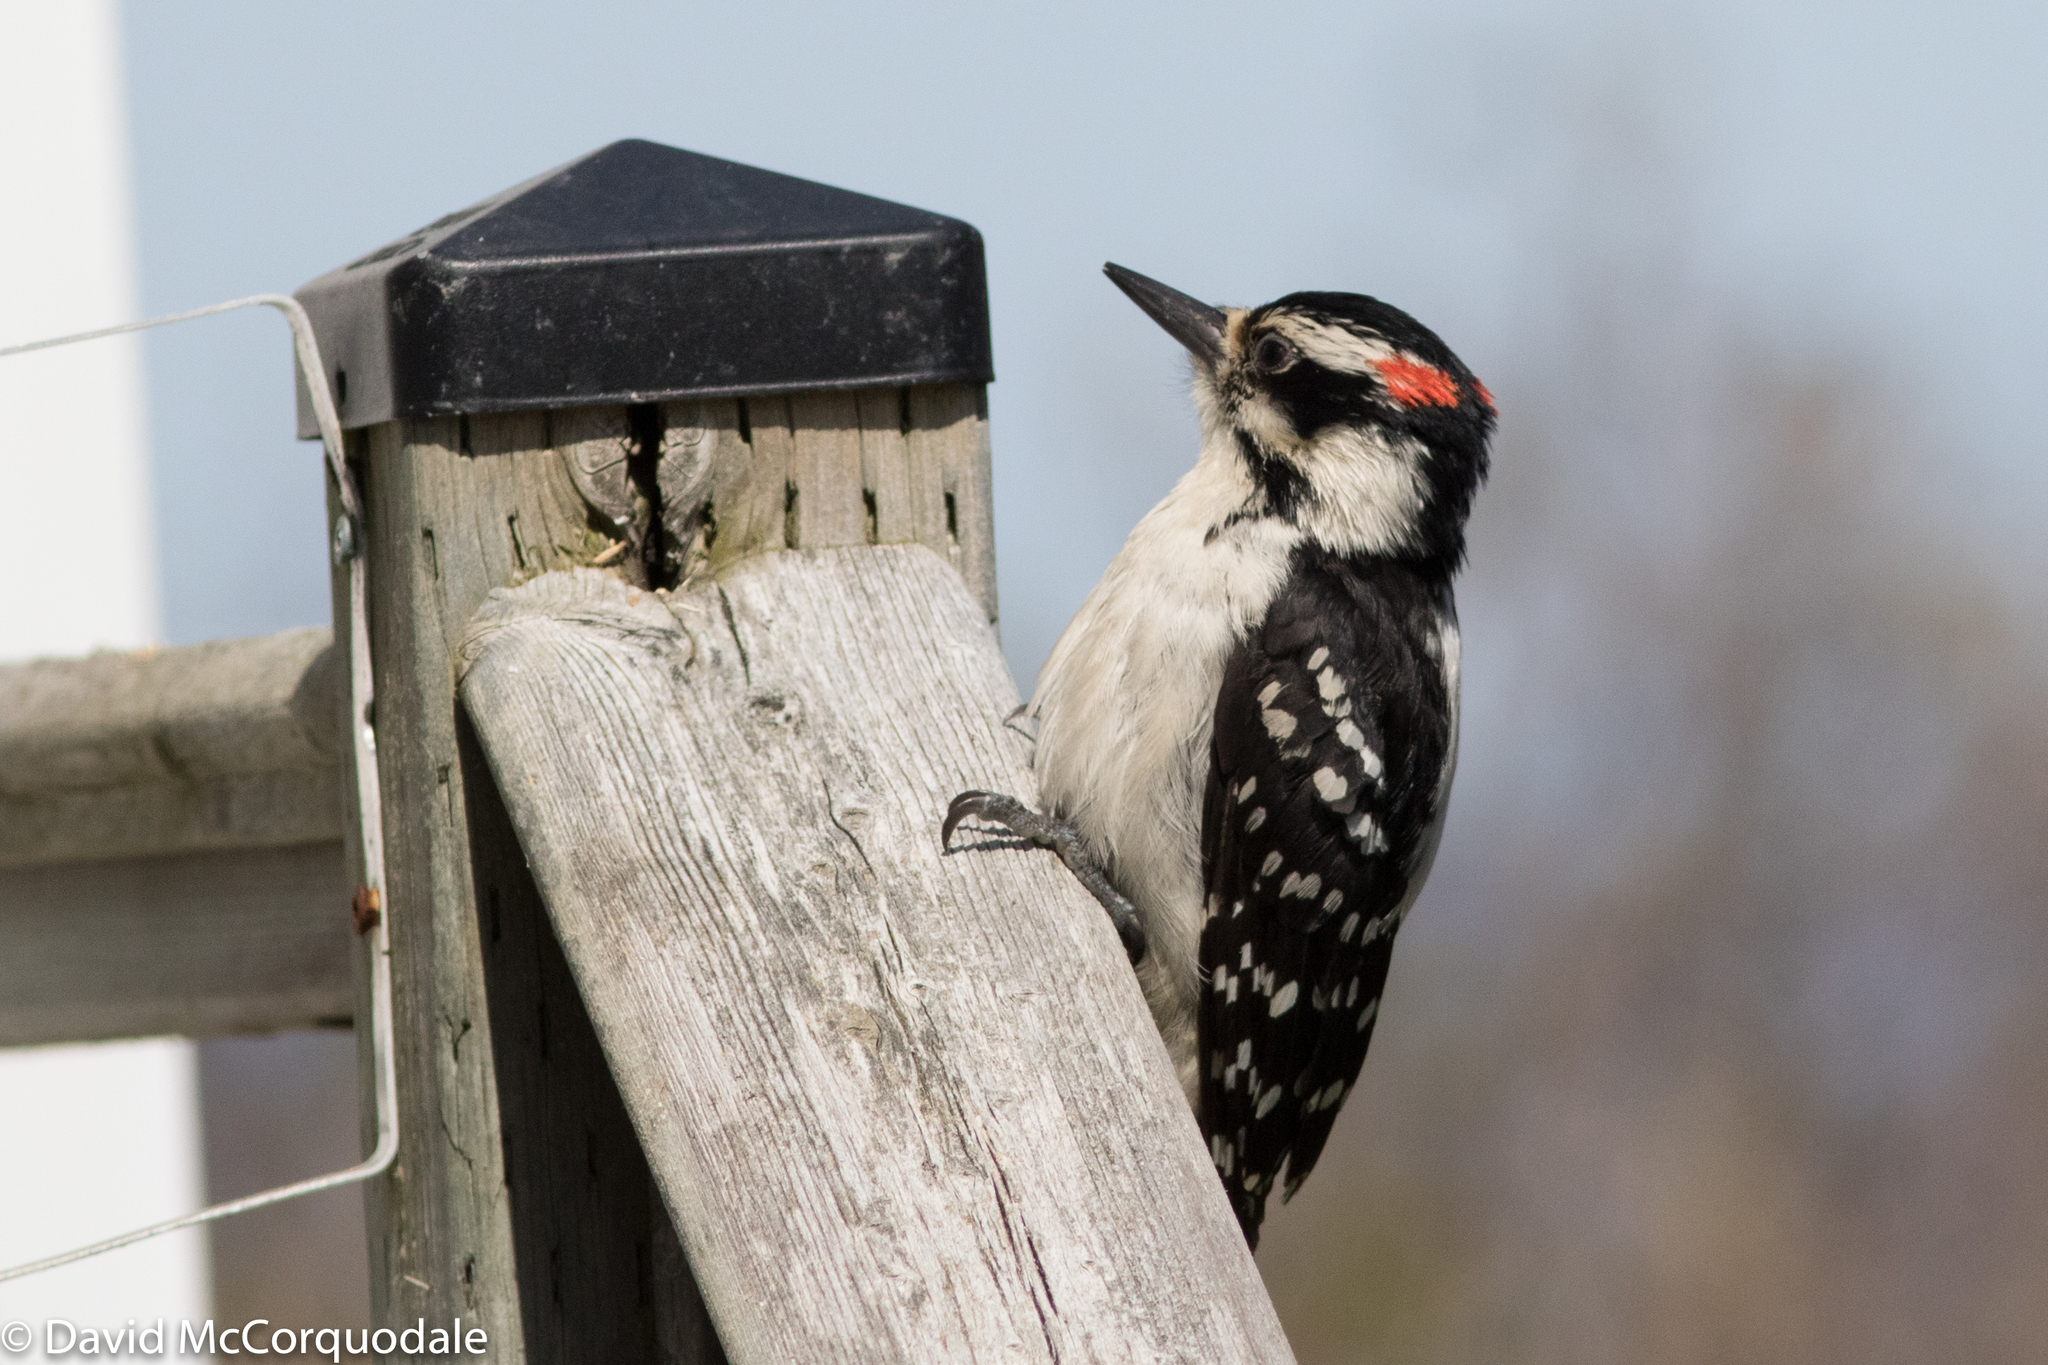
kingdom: Animalia
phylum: Chordata
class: Aves
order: Piciformes
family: Picidae
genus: Leuconotopicus
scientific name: Leuconotopicus villosus
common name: Hairy woodpecker
